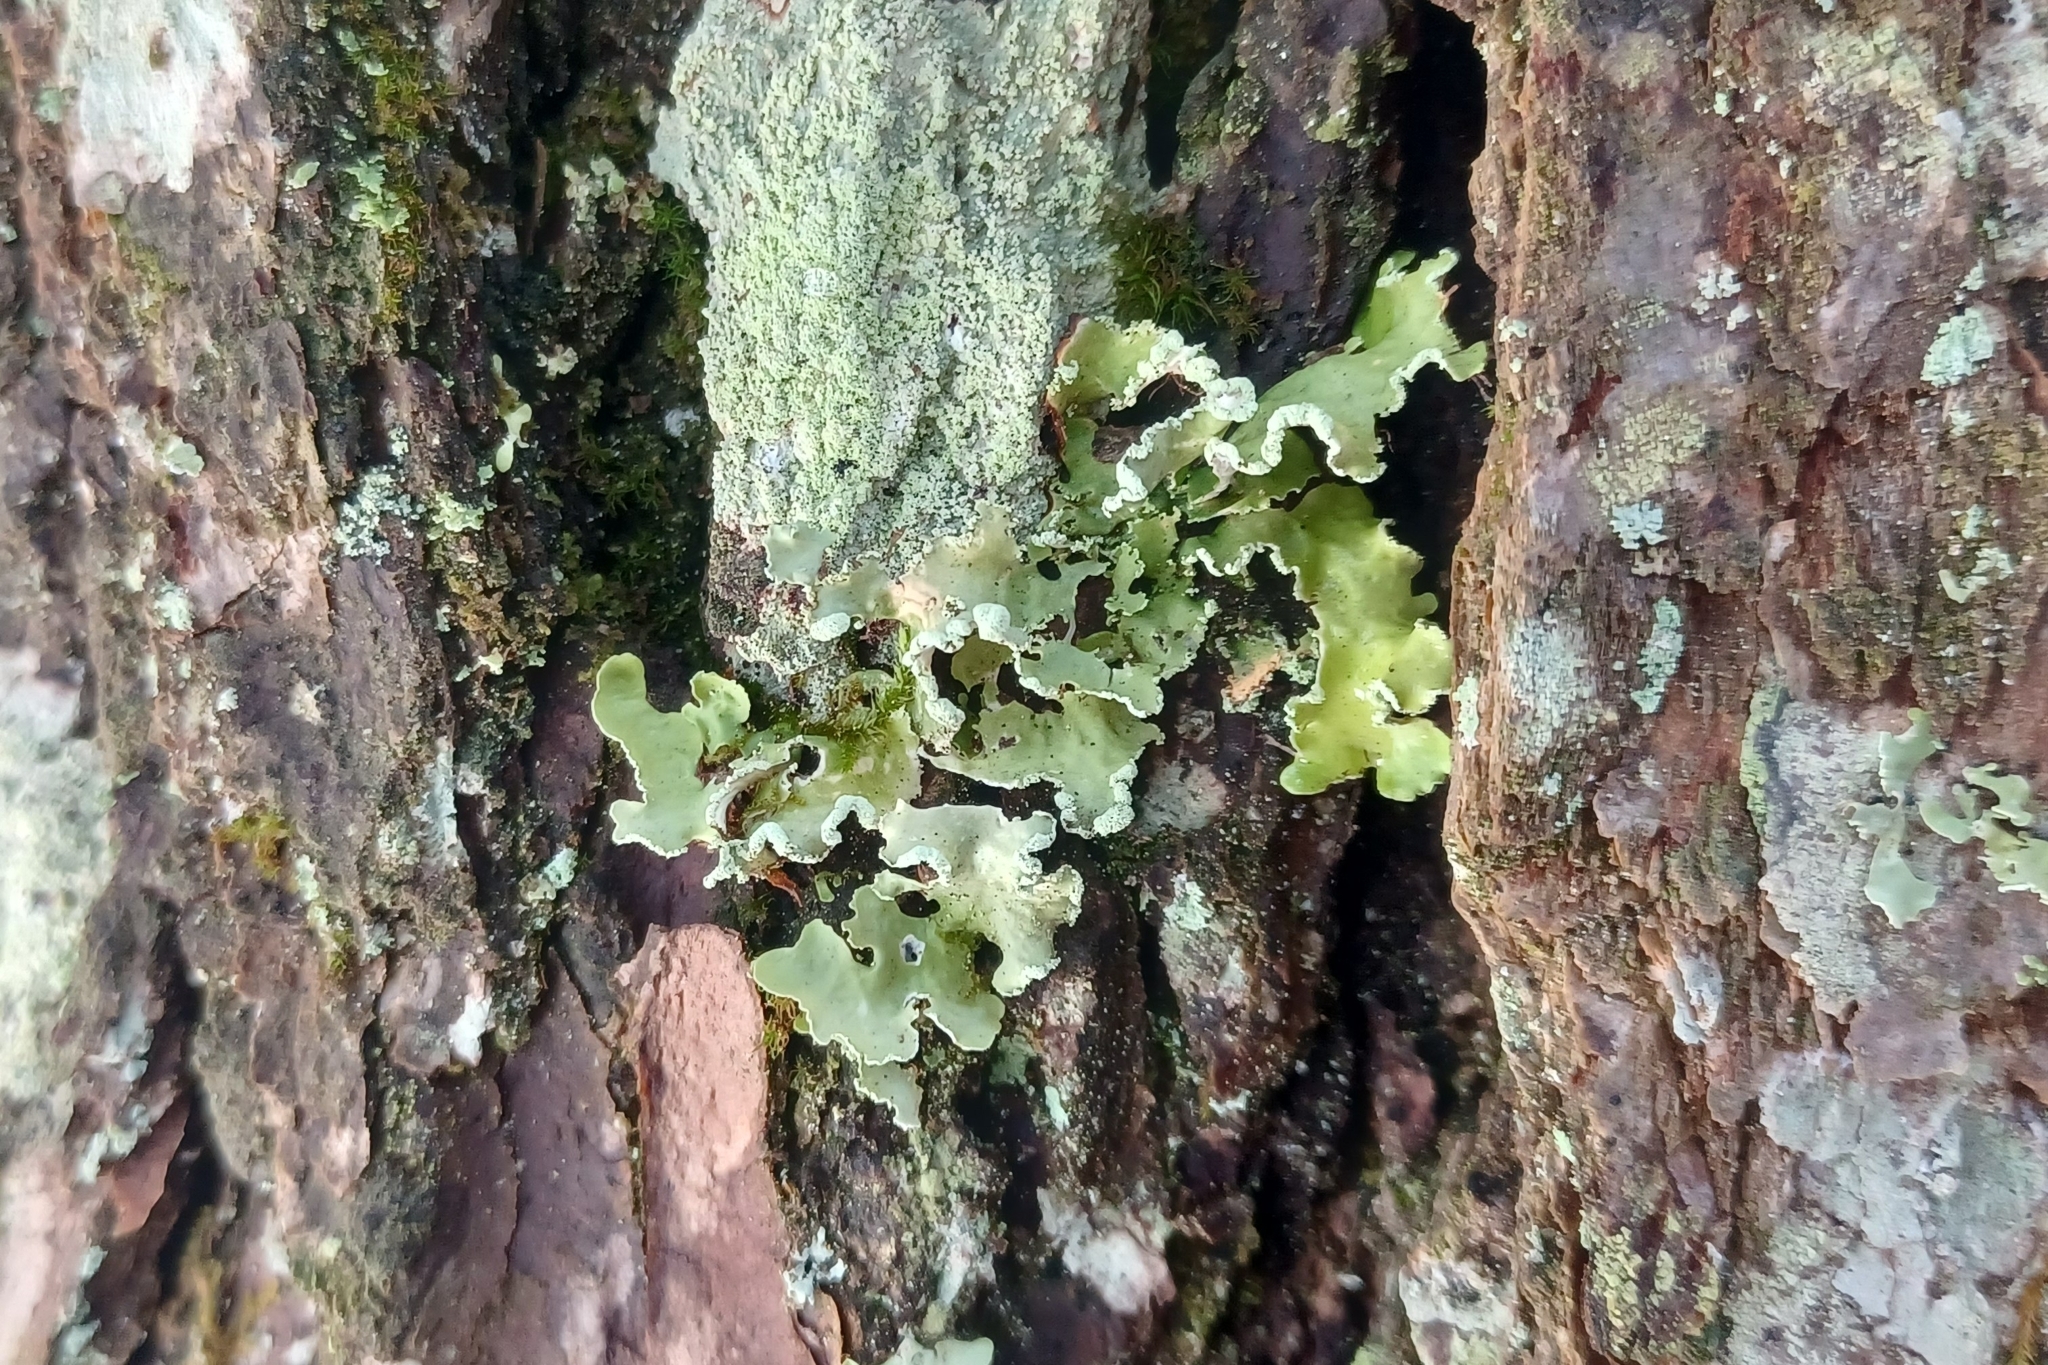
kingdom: Fungi
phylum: Ascomycota
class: Lecanoromycetes
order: Lecanorales
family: Parmeliaceae
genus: Usnocetraria
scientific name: Usnocetraria oakesiana
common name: Yellow ribbon lichen
